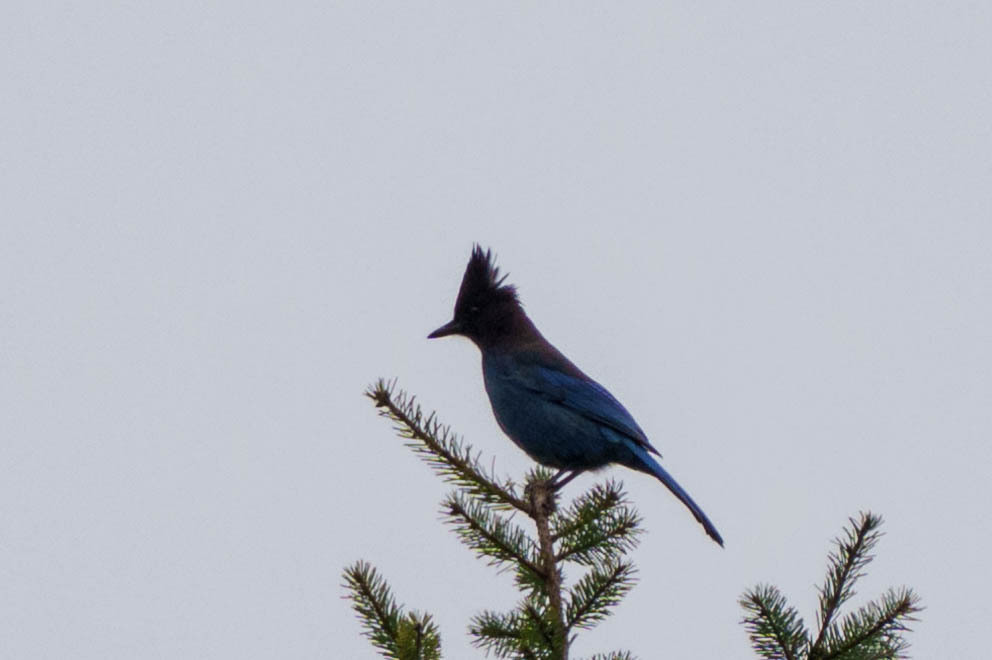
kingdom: Animalia
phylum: Chordata
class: Aves
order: Passeriformes
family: Corvidae
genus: Cyanocitta
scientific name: Cyanocitta stelleri
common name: Steller's jay
